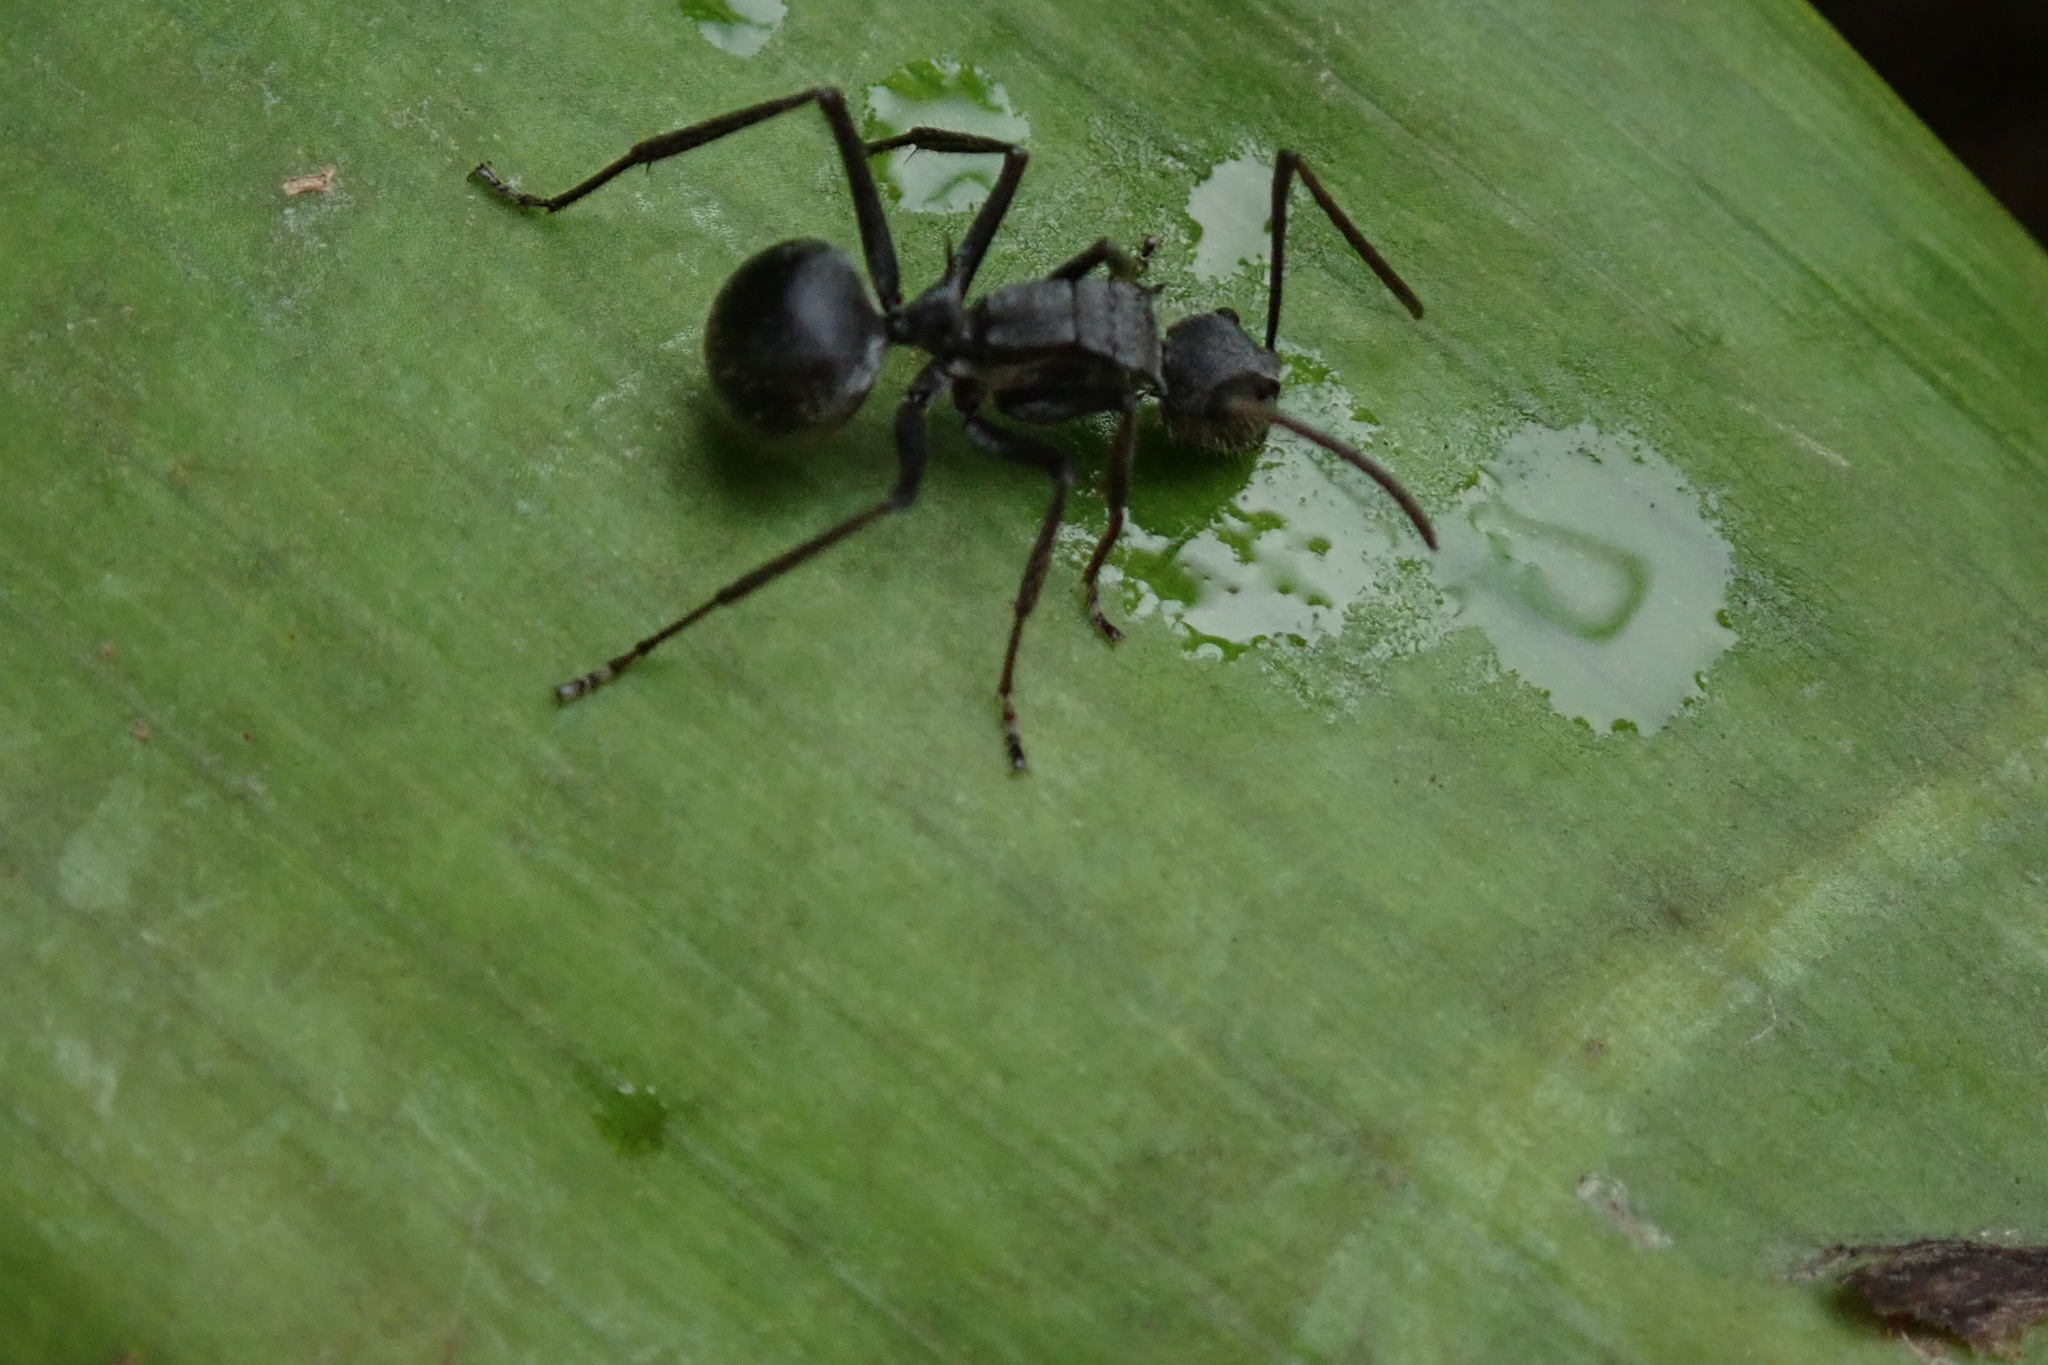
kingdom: Animalia
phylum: Arthropoda
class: Insecta
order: Hymenoptera
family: Formicidae
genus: Polyrhachis
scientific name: Polyrhachis schistacea
